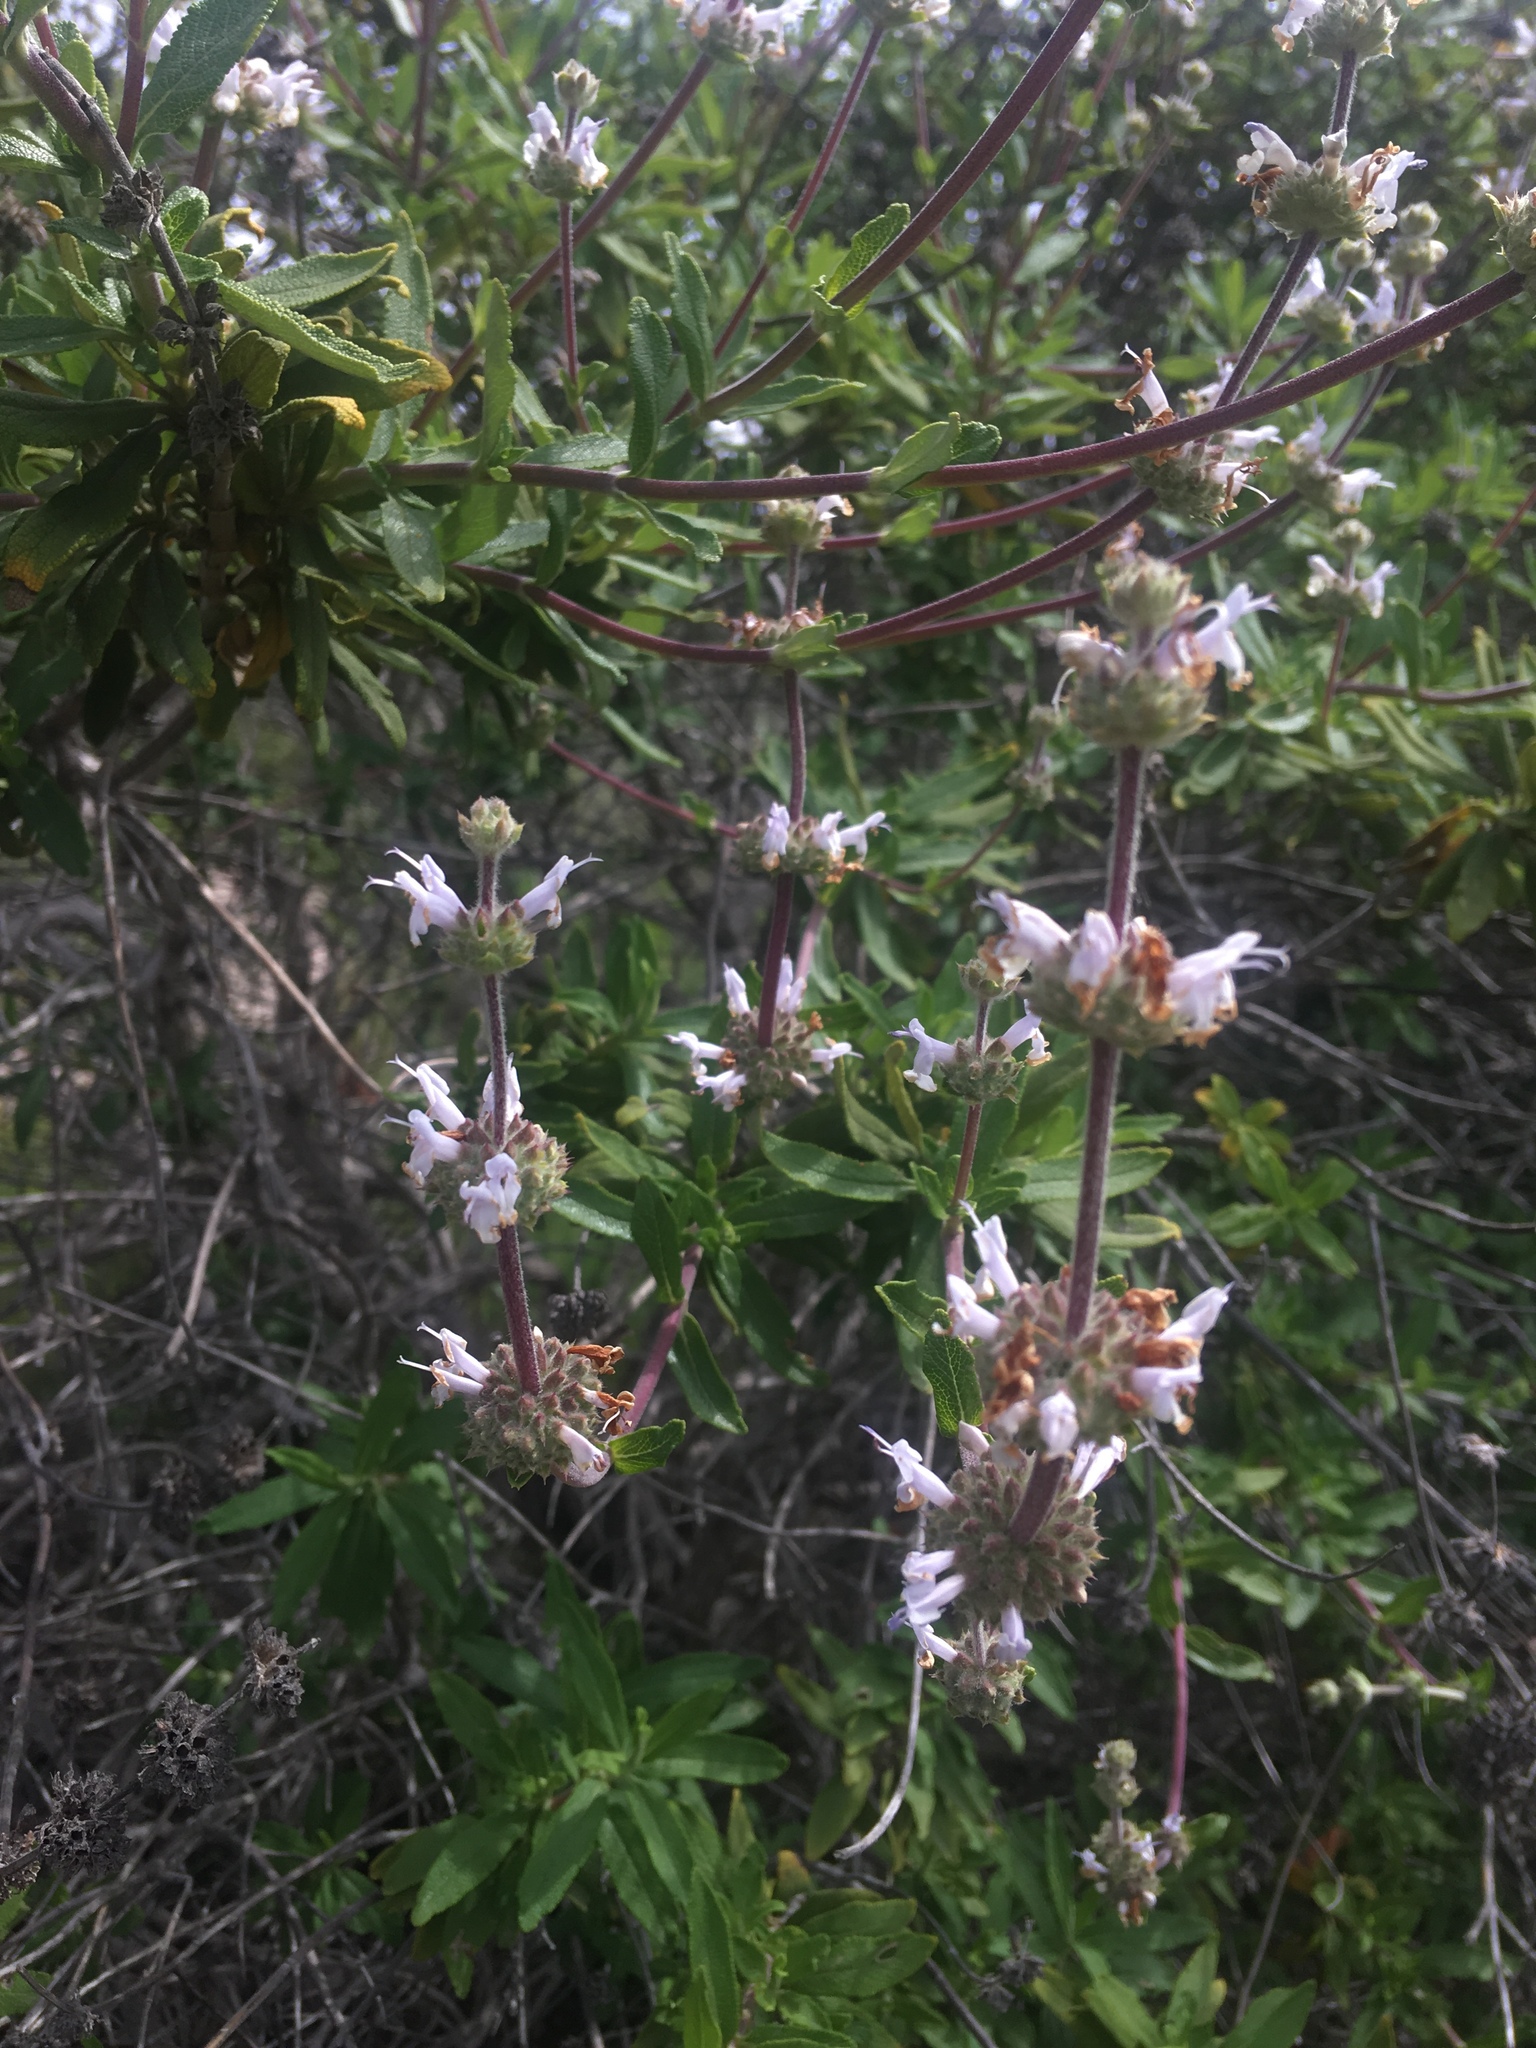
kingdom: Plantae
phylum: Tracheophyta
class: Magnoliopsida
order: Lamiales
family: Lamiaceae
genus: Salvia
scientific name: Salvia mellifera
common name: Black sage
